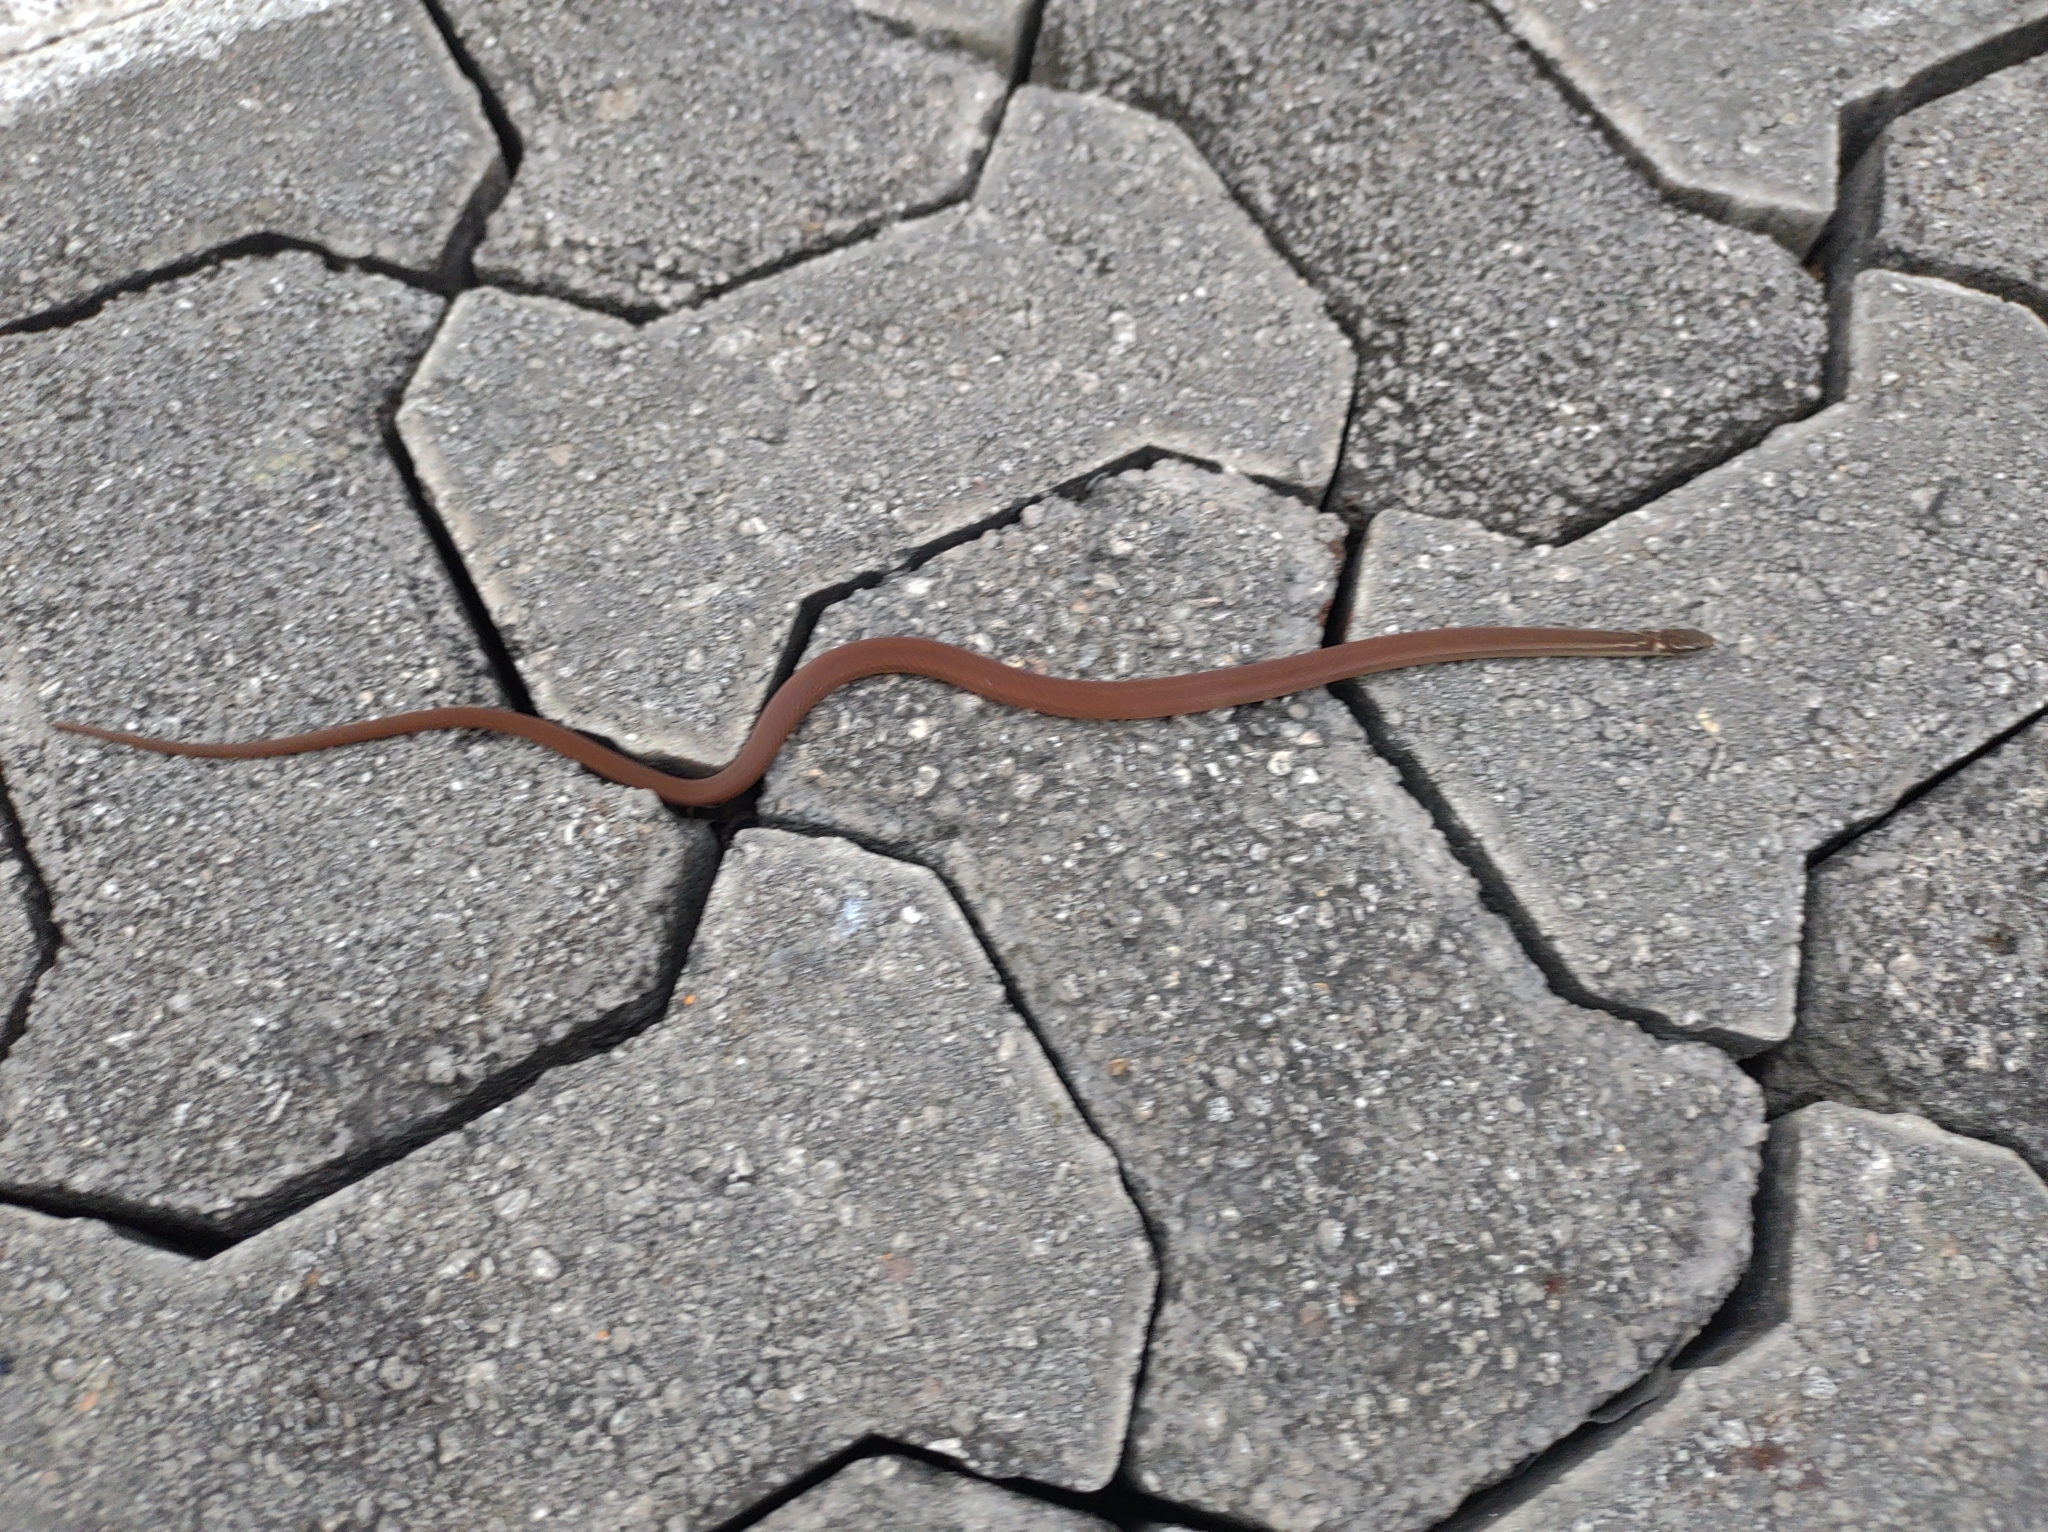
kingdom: Animalia
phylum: Chordata
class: Squamata
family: Colubridae
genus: Coniophanes
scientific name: Coniophanes meridanus
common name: Peninsula stripeless snake
